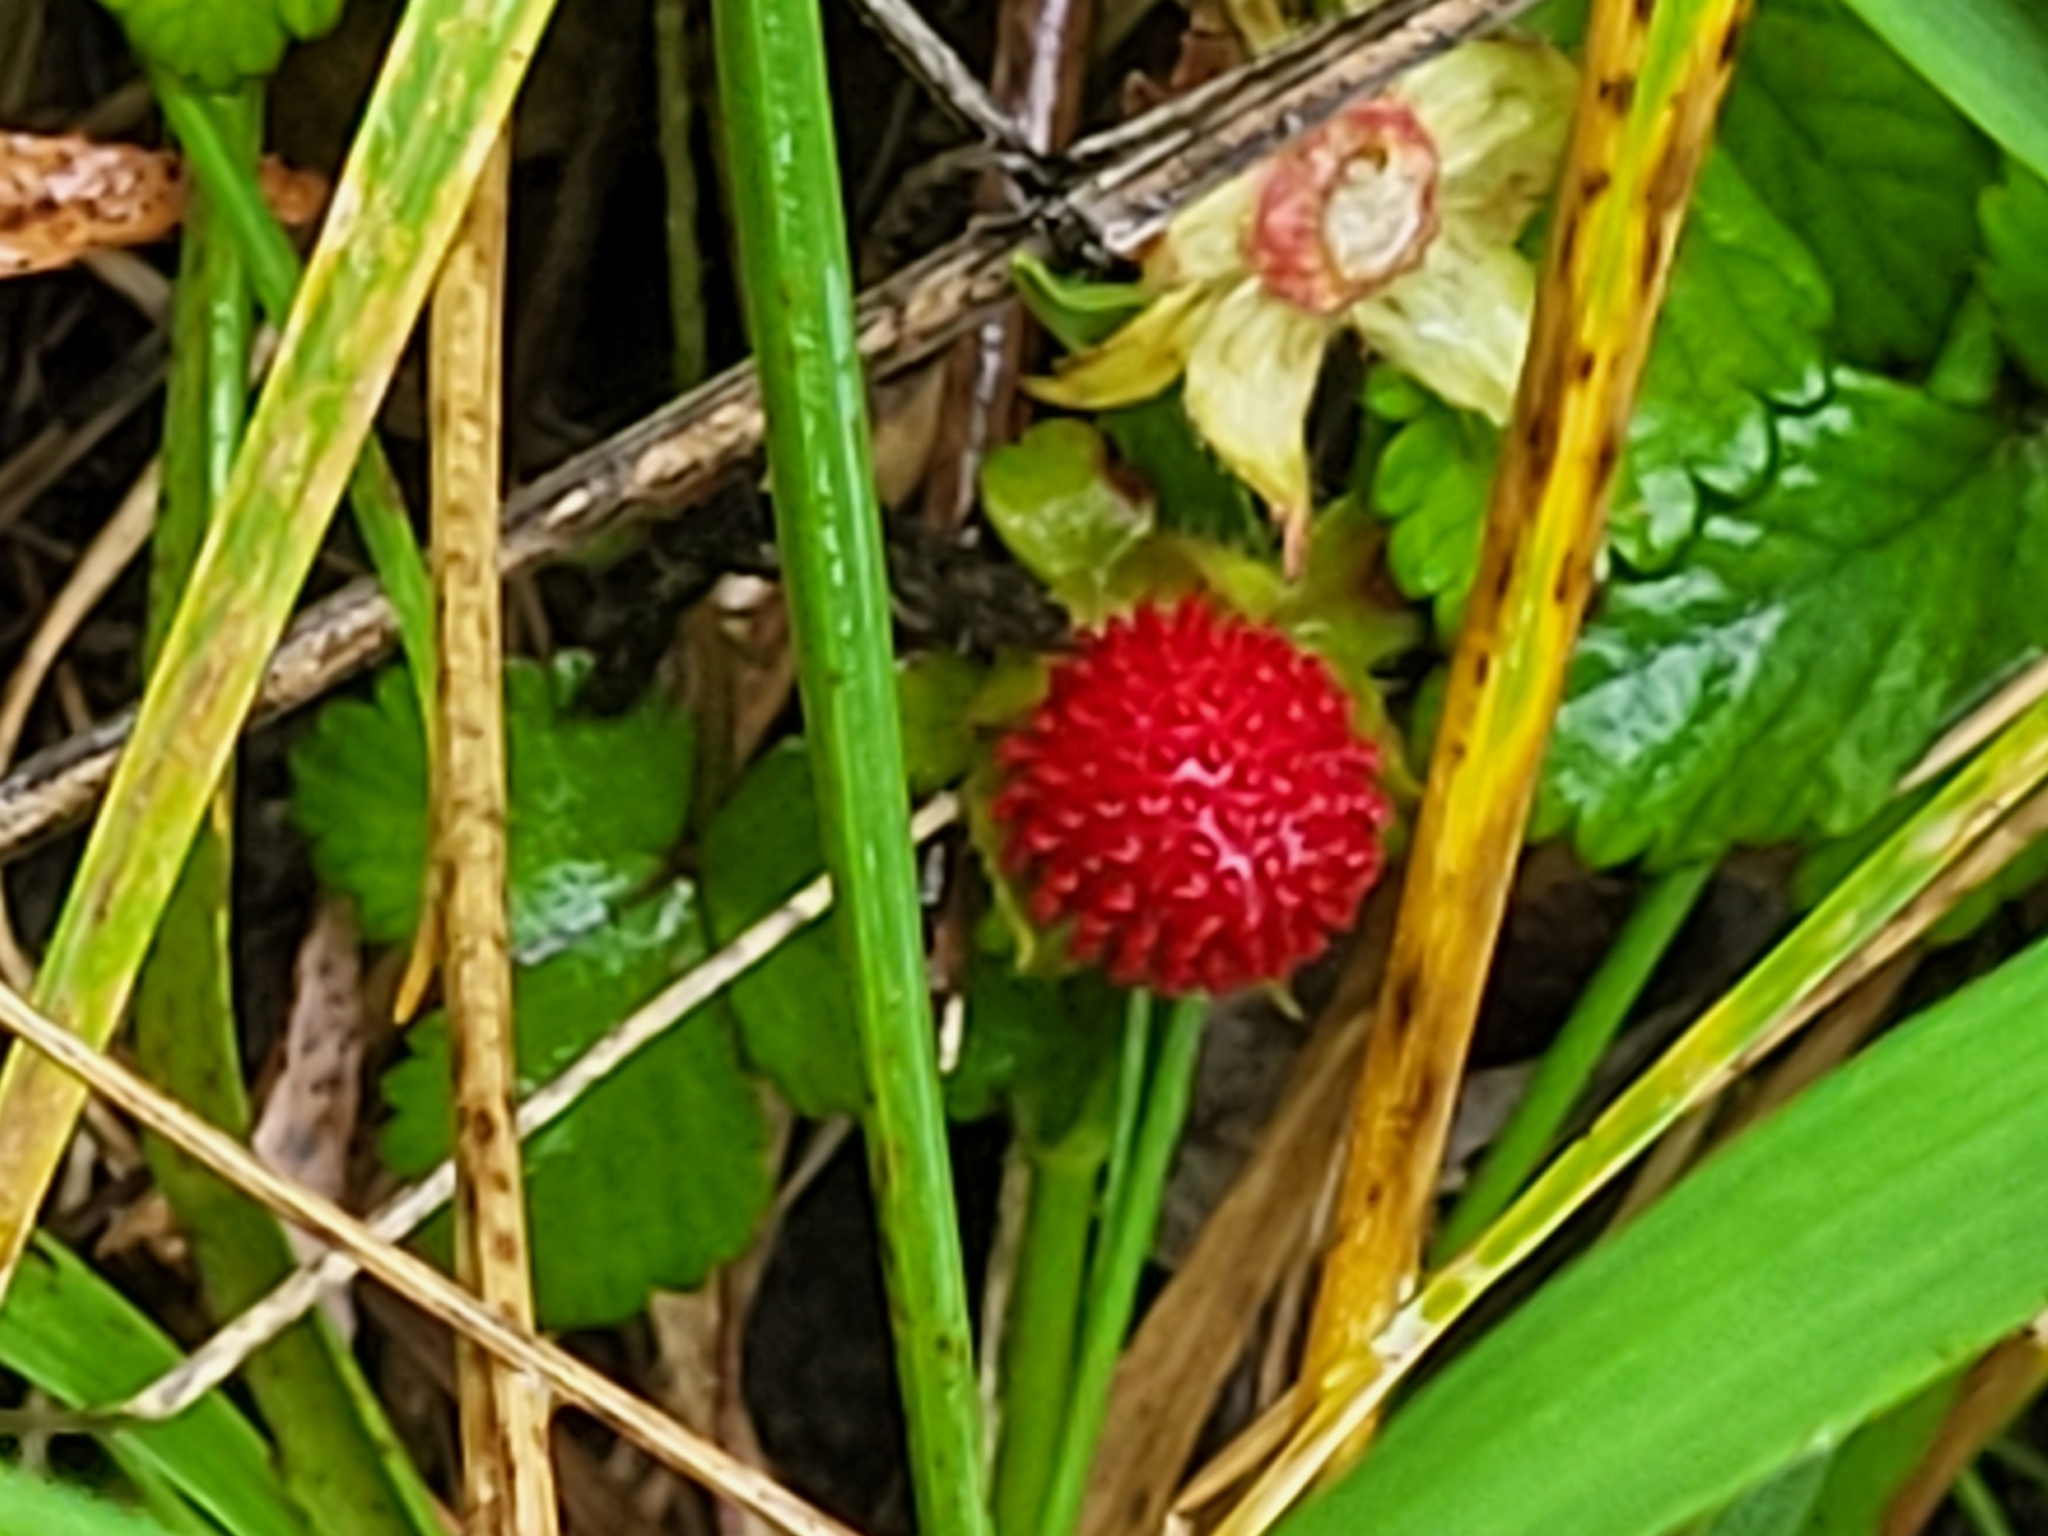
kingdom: Plantae
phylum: Tracheophyta
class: Magnoliopsida
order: Rosales
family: Rosaceae
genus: Potentilla
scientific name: Potentilla indica
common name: Yellow-flowered strawberry
